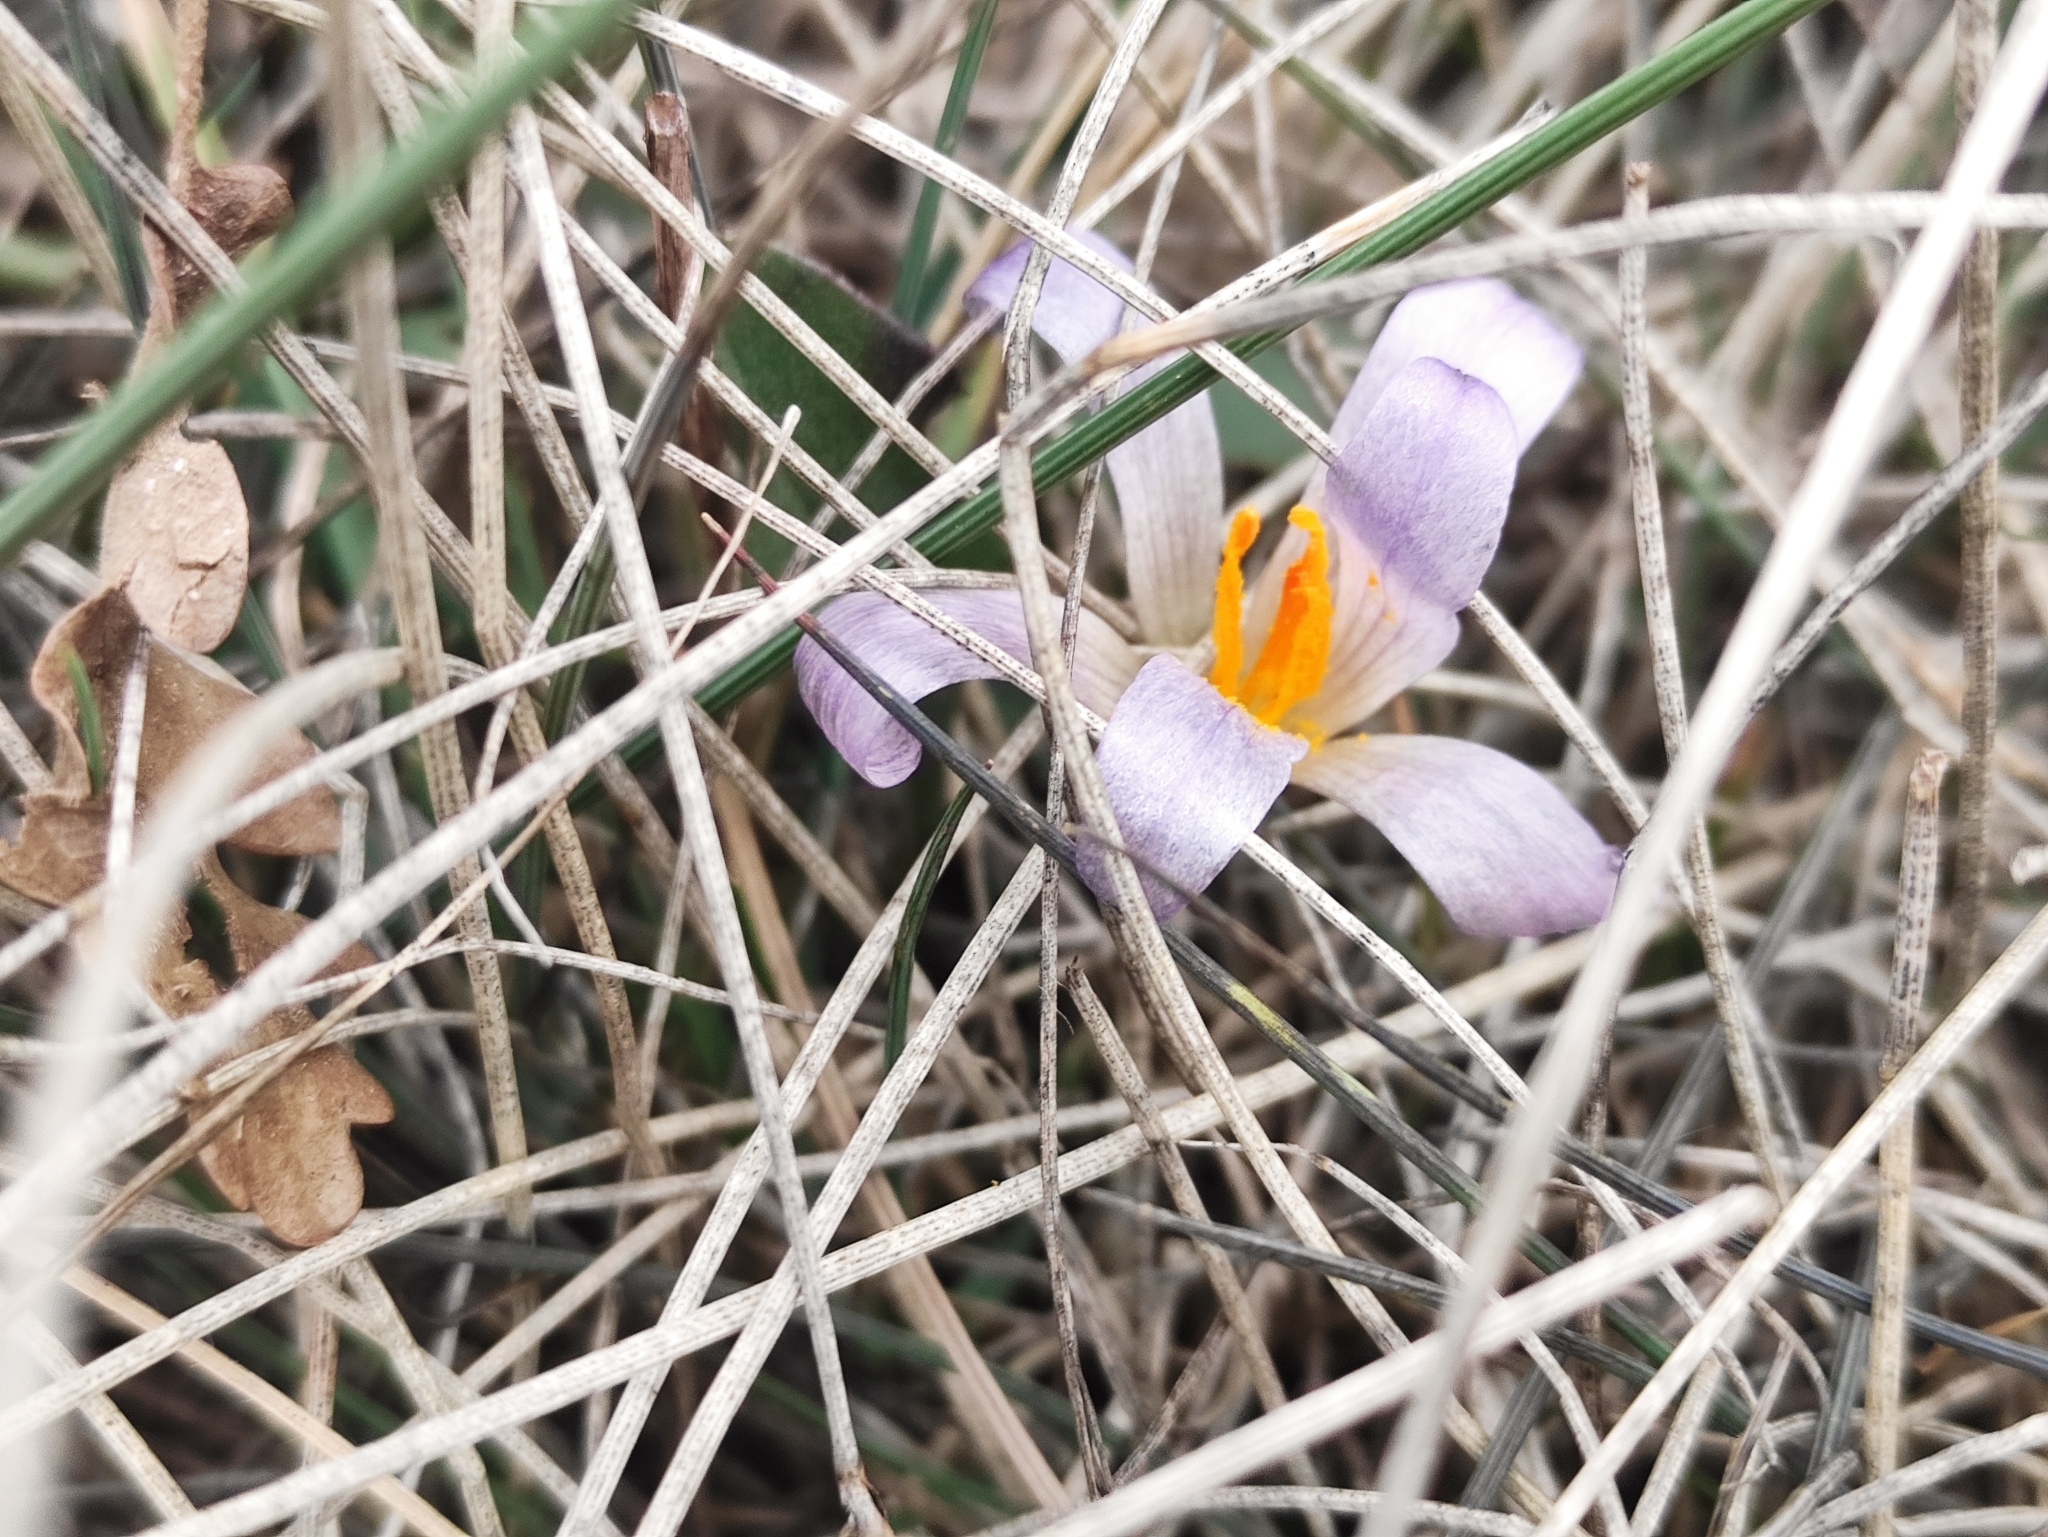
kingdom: Plantae
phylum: Tracheophyta
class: Liliopsida
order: Asparagales
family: Iridaceae
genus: Crocus
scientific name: Crocus versicolor
